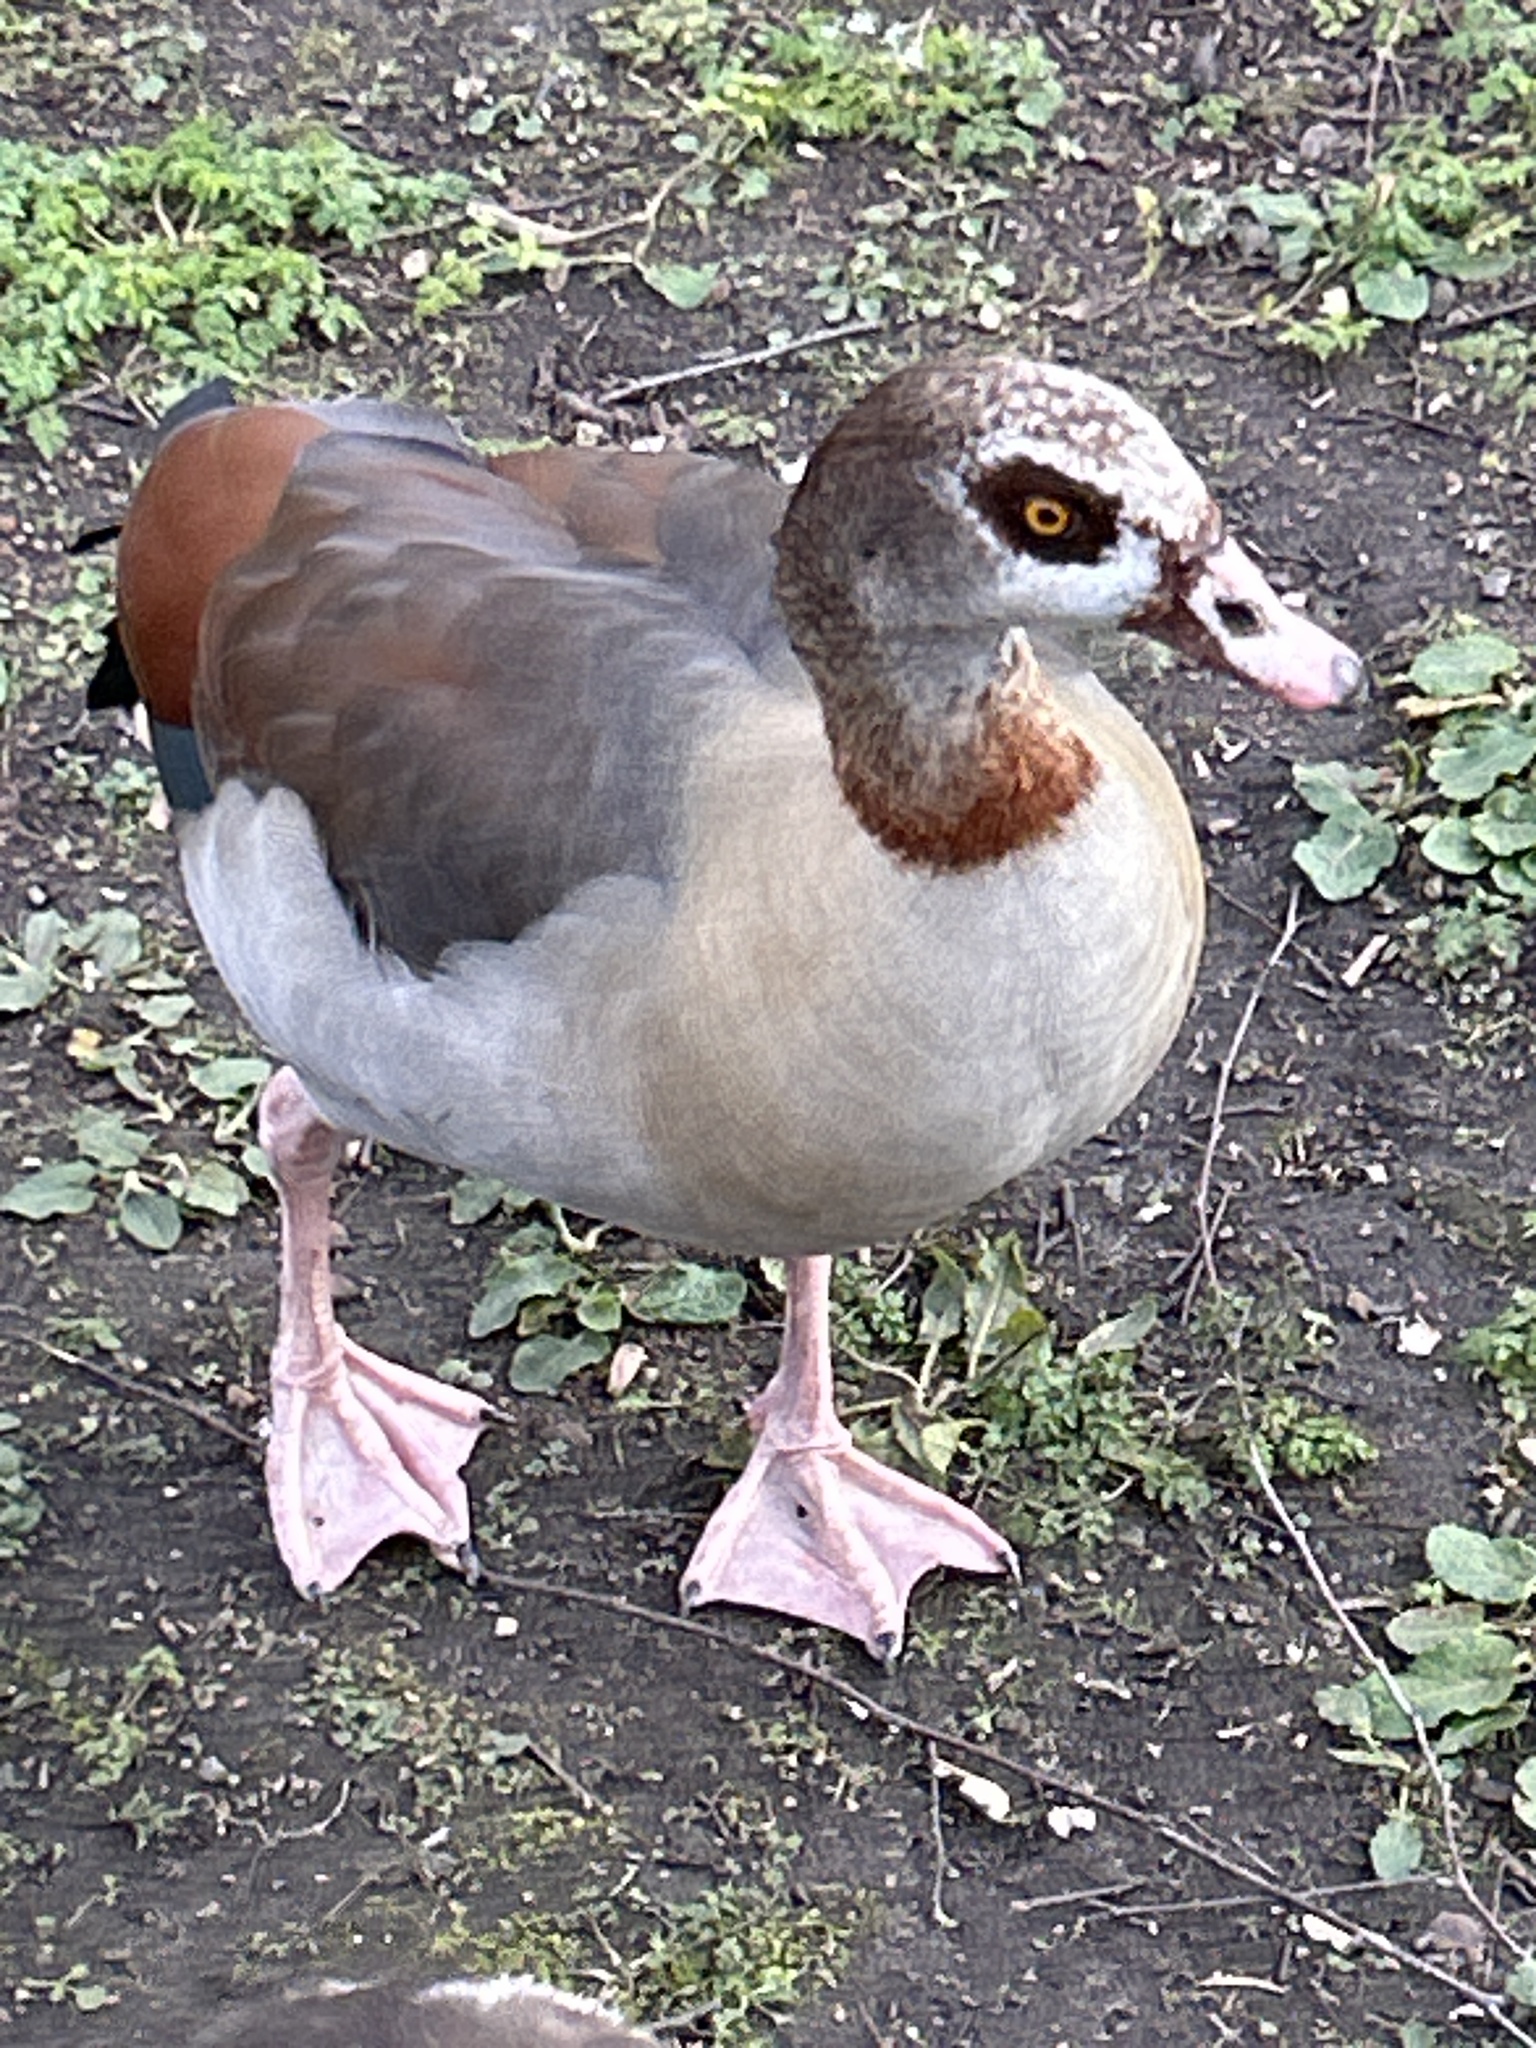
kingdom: Animalia
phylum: Chordata
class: Aves
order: Anseriformes
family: Anatidae
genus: Alopochen
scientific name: Alopochen aegyptiaca
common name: Egyptian goose
